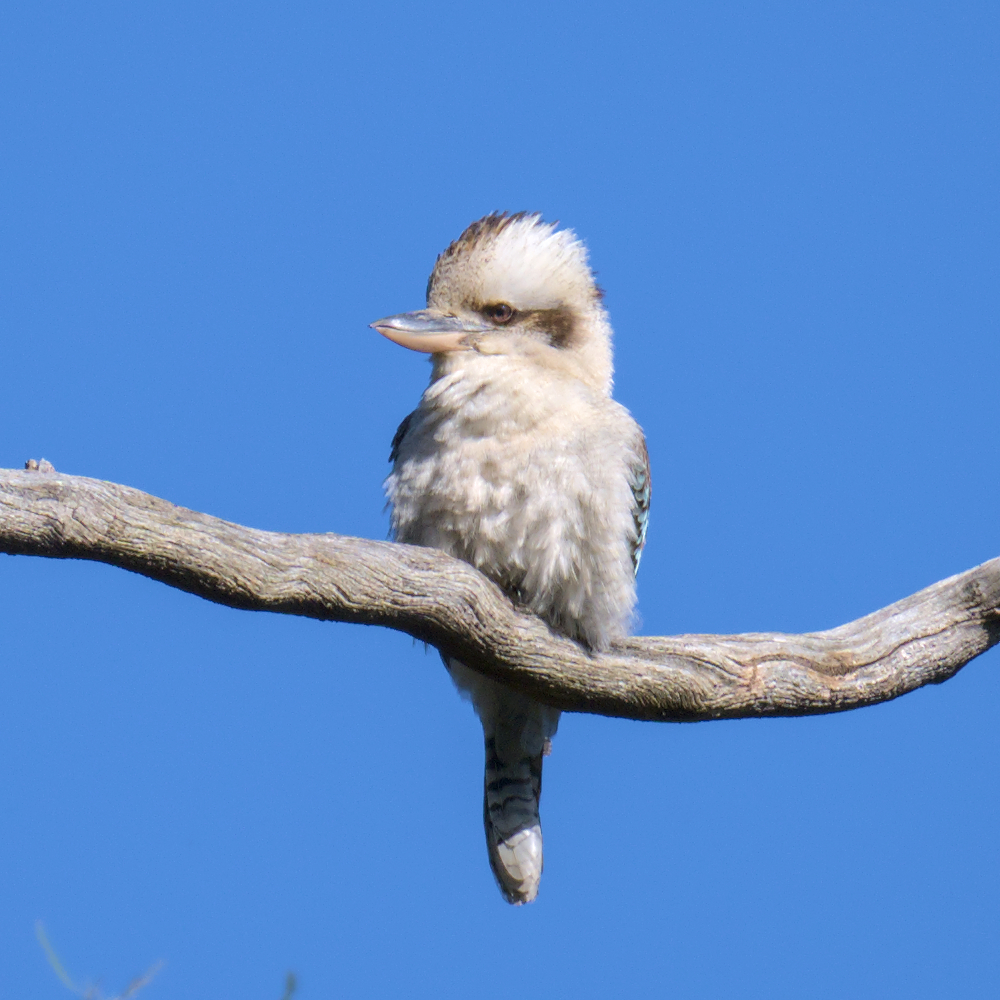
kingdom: Animalia
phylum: Chordata
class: Aves
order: Coraciiformes
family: Alcedinidae
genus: Dacelo
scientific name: Dacelo novaeguineae
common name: Laughing kookaburra
